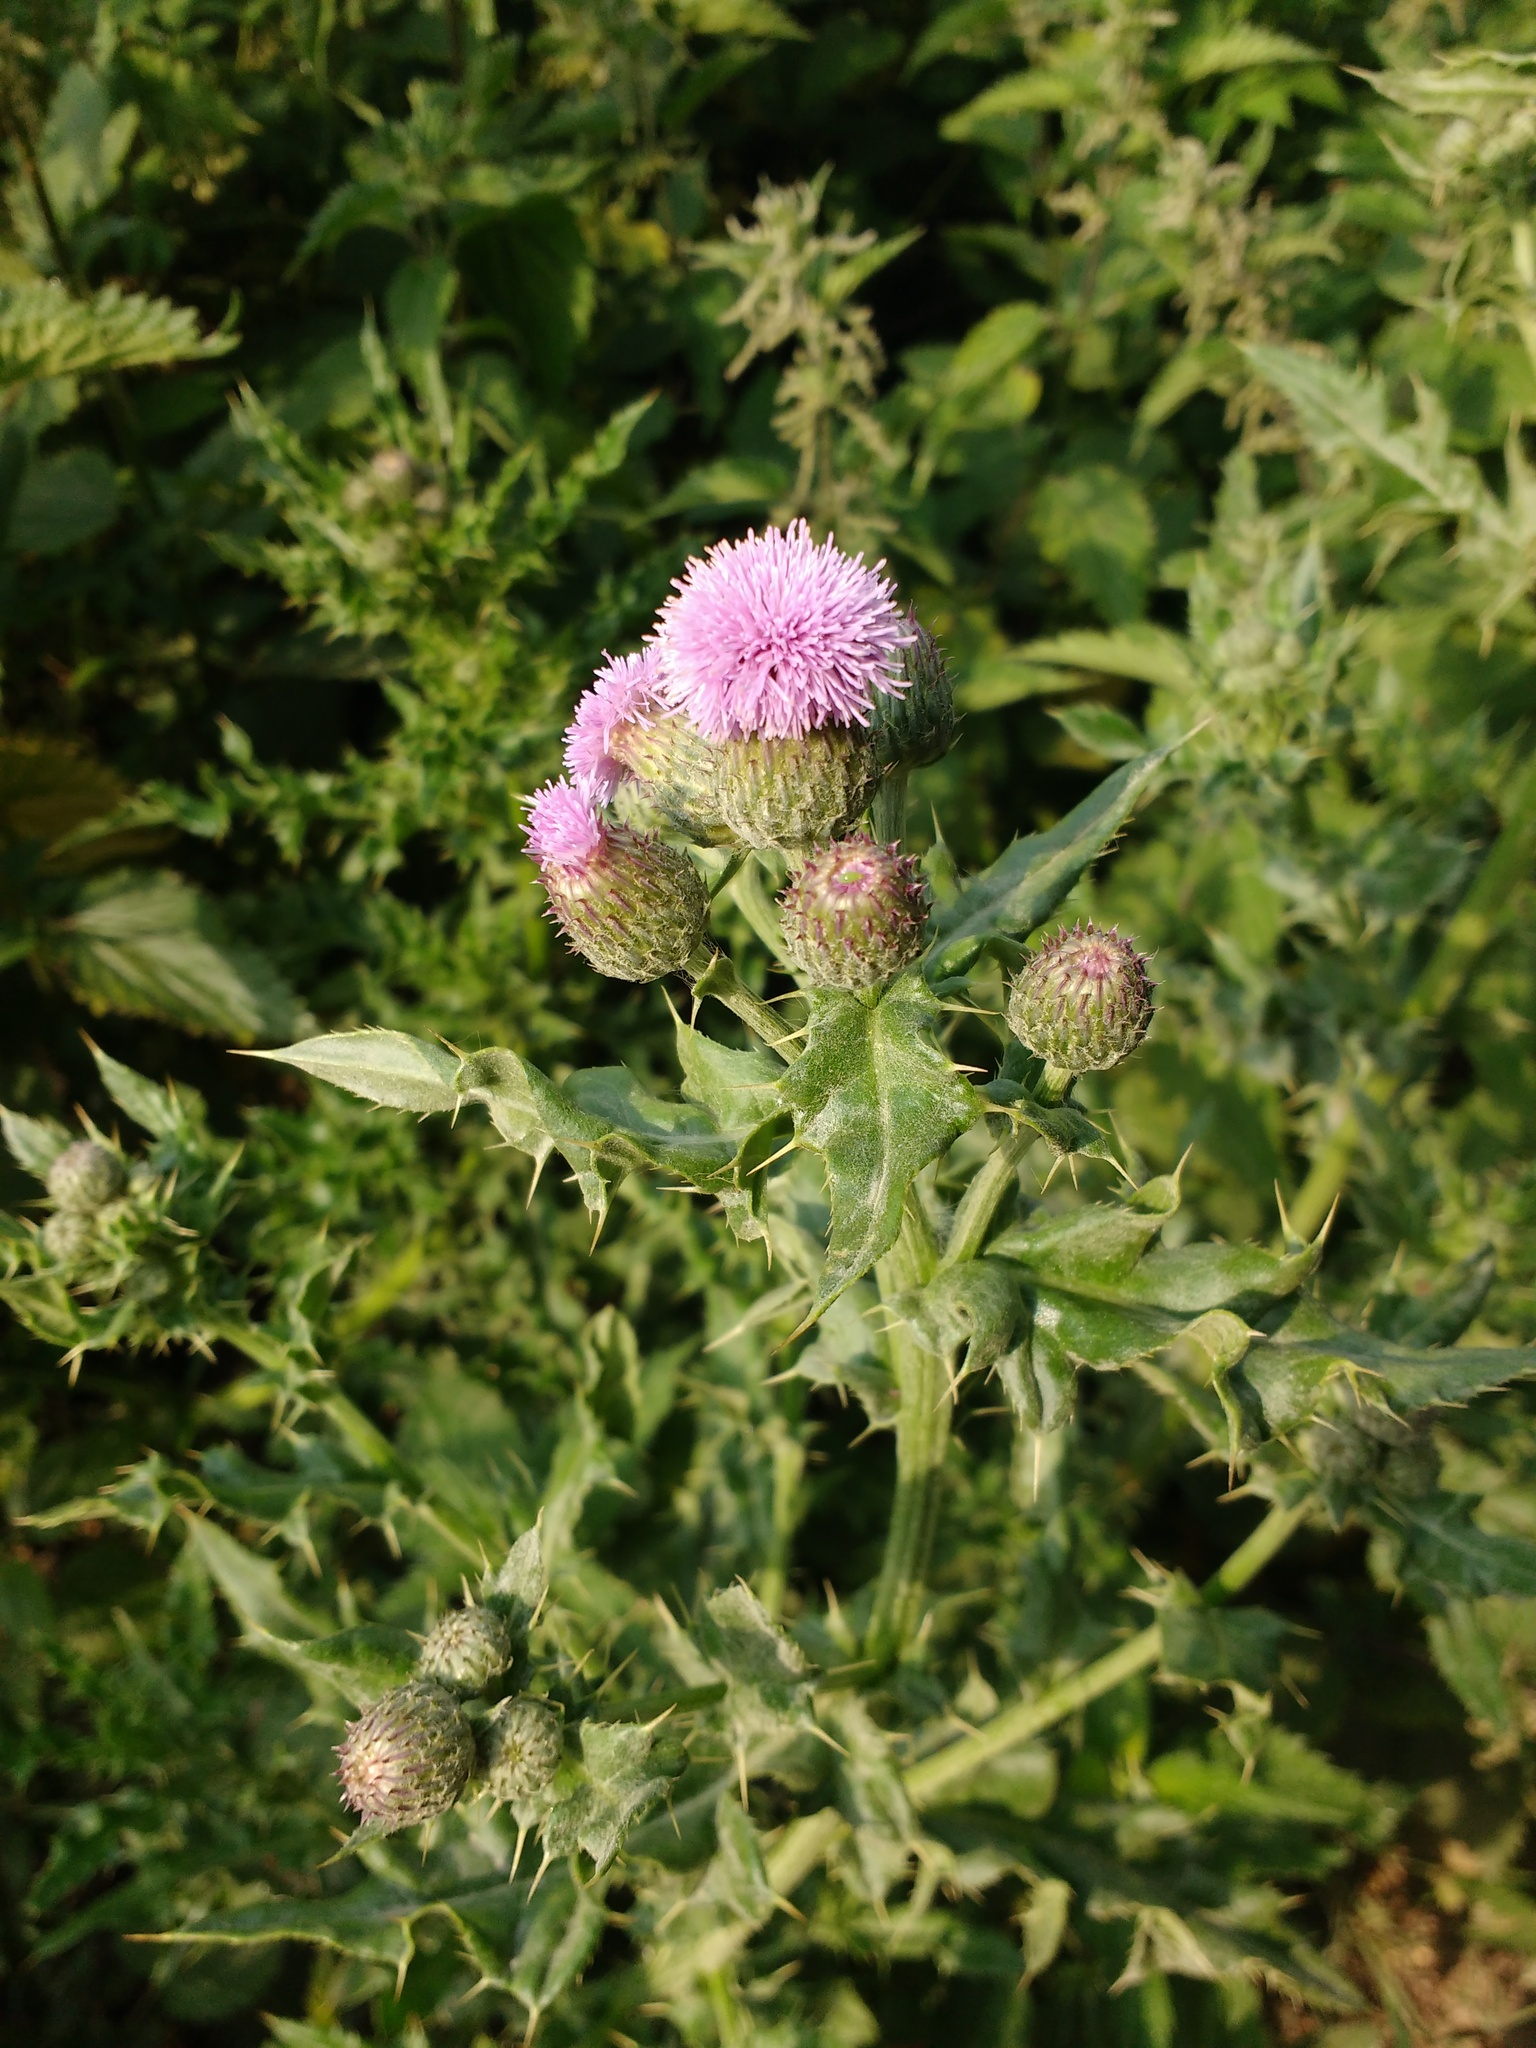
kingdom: Plantae
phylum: Tracheophyta
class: Magnoliopsida
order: Asterales
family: Asteraceae
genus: Cirsium
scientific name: Cirsium arvense
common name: Creeping thistle
